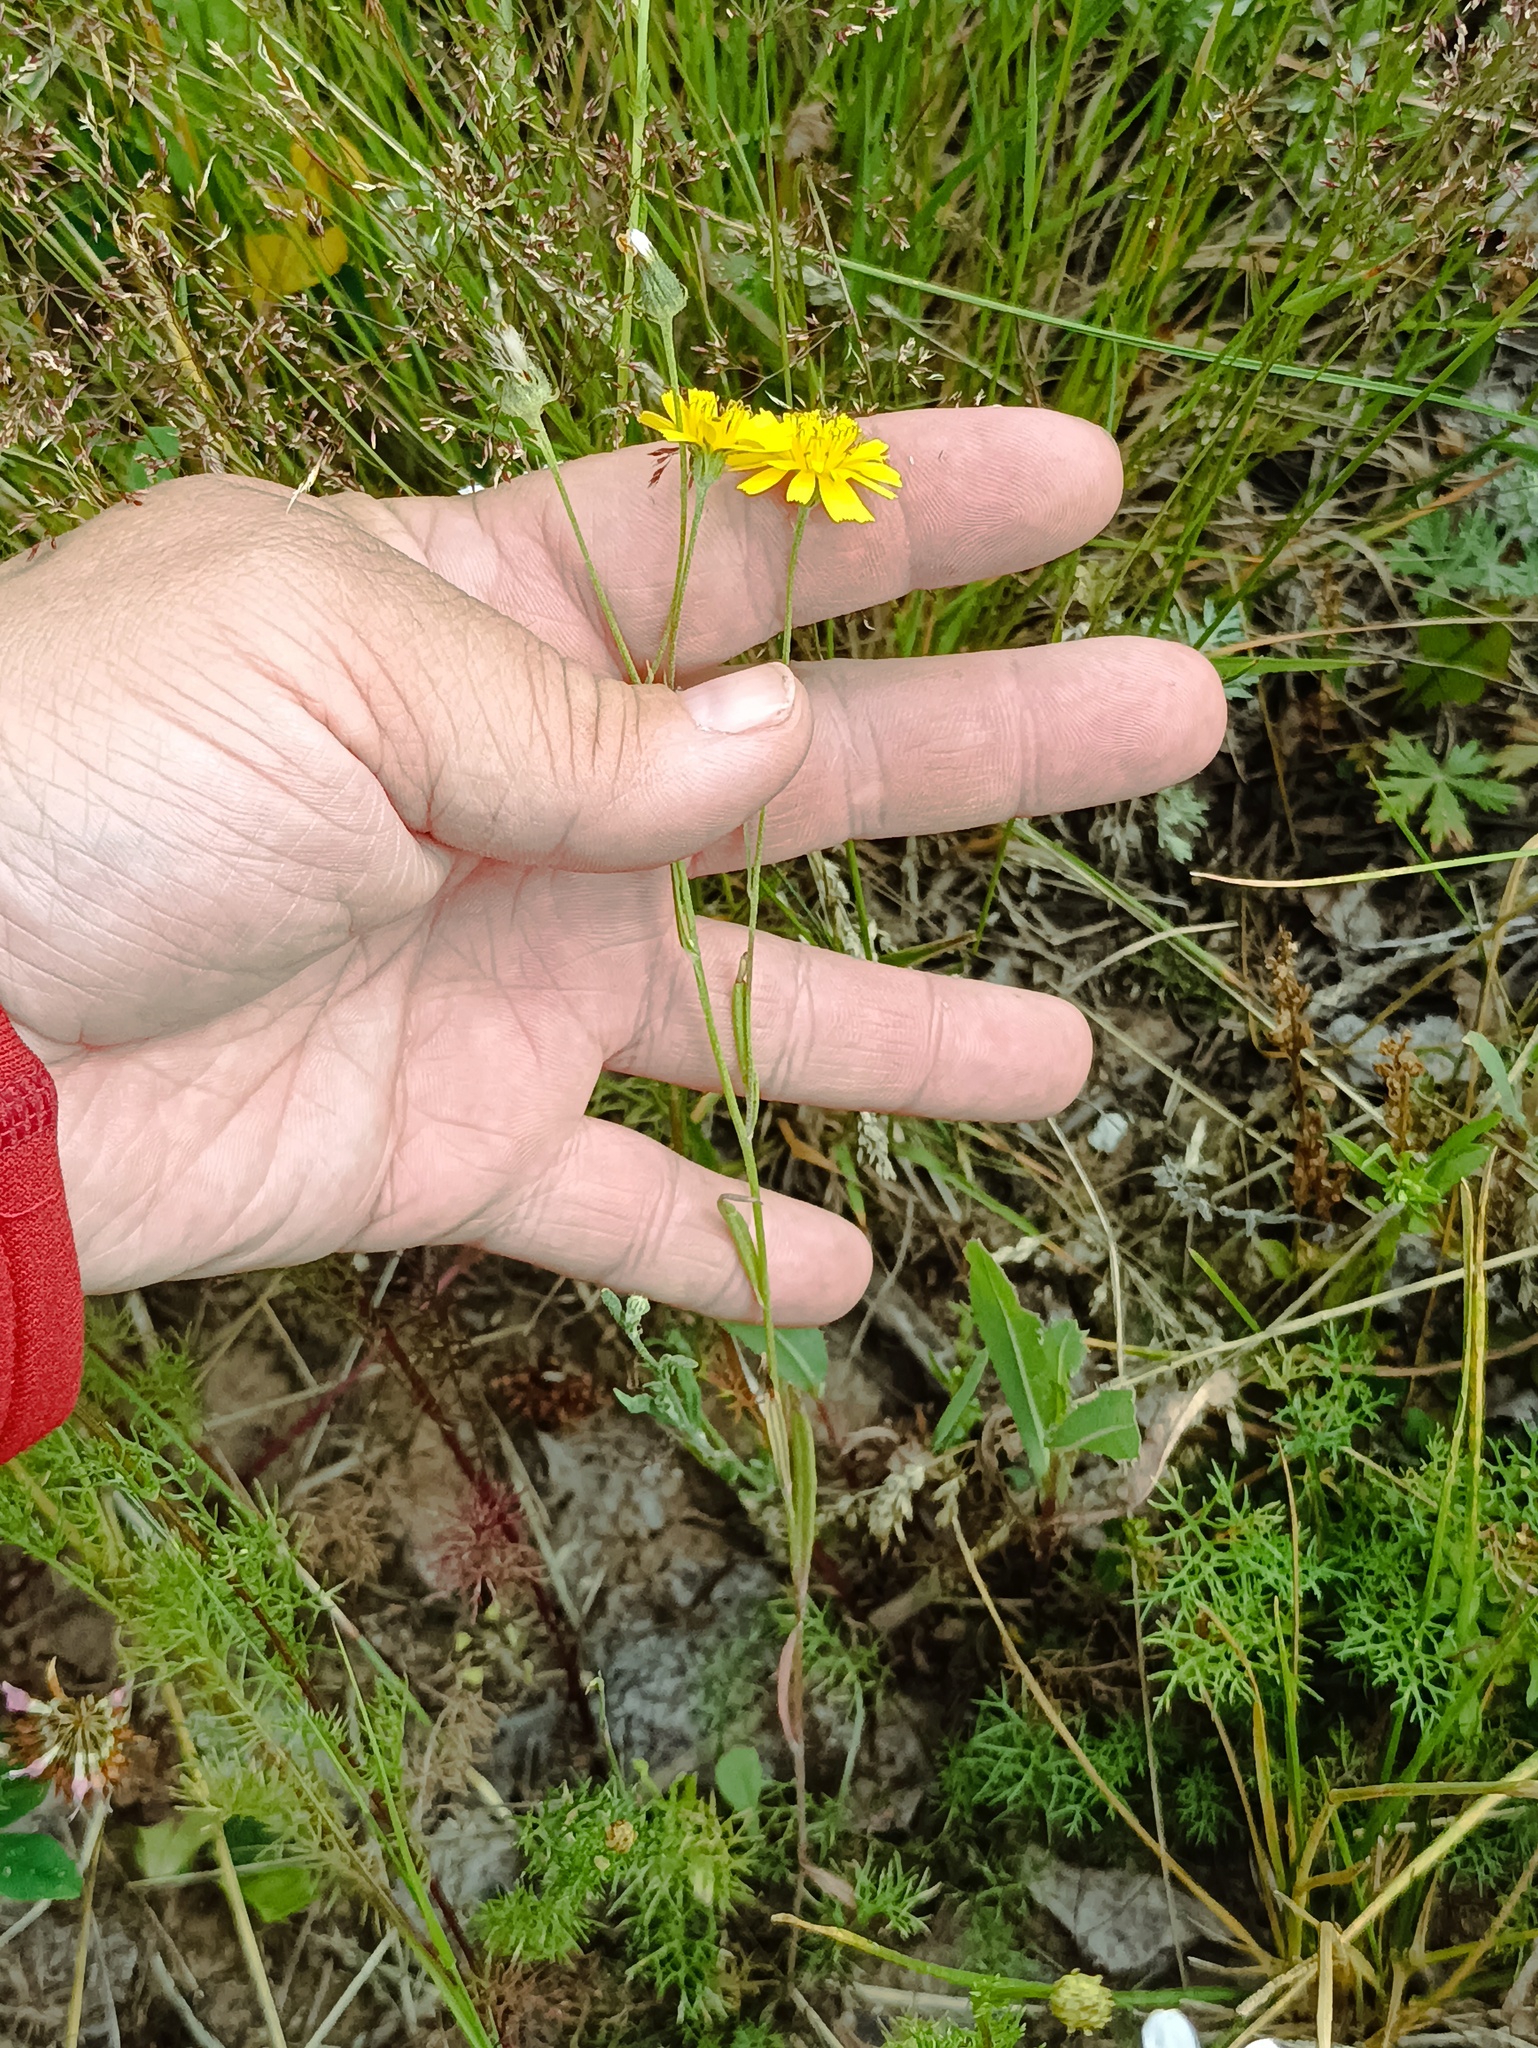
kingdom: Plantae
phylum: Tracheophyta
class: Magnoliopsida
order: Asterales
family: Asteraceae
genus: Crepis
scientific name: Crepis tectorum
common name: Narrow-leaved hawk's-beard
